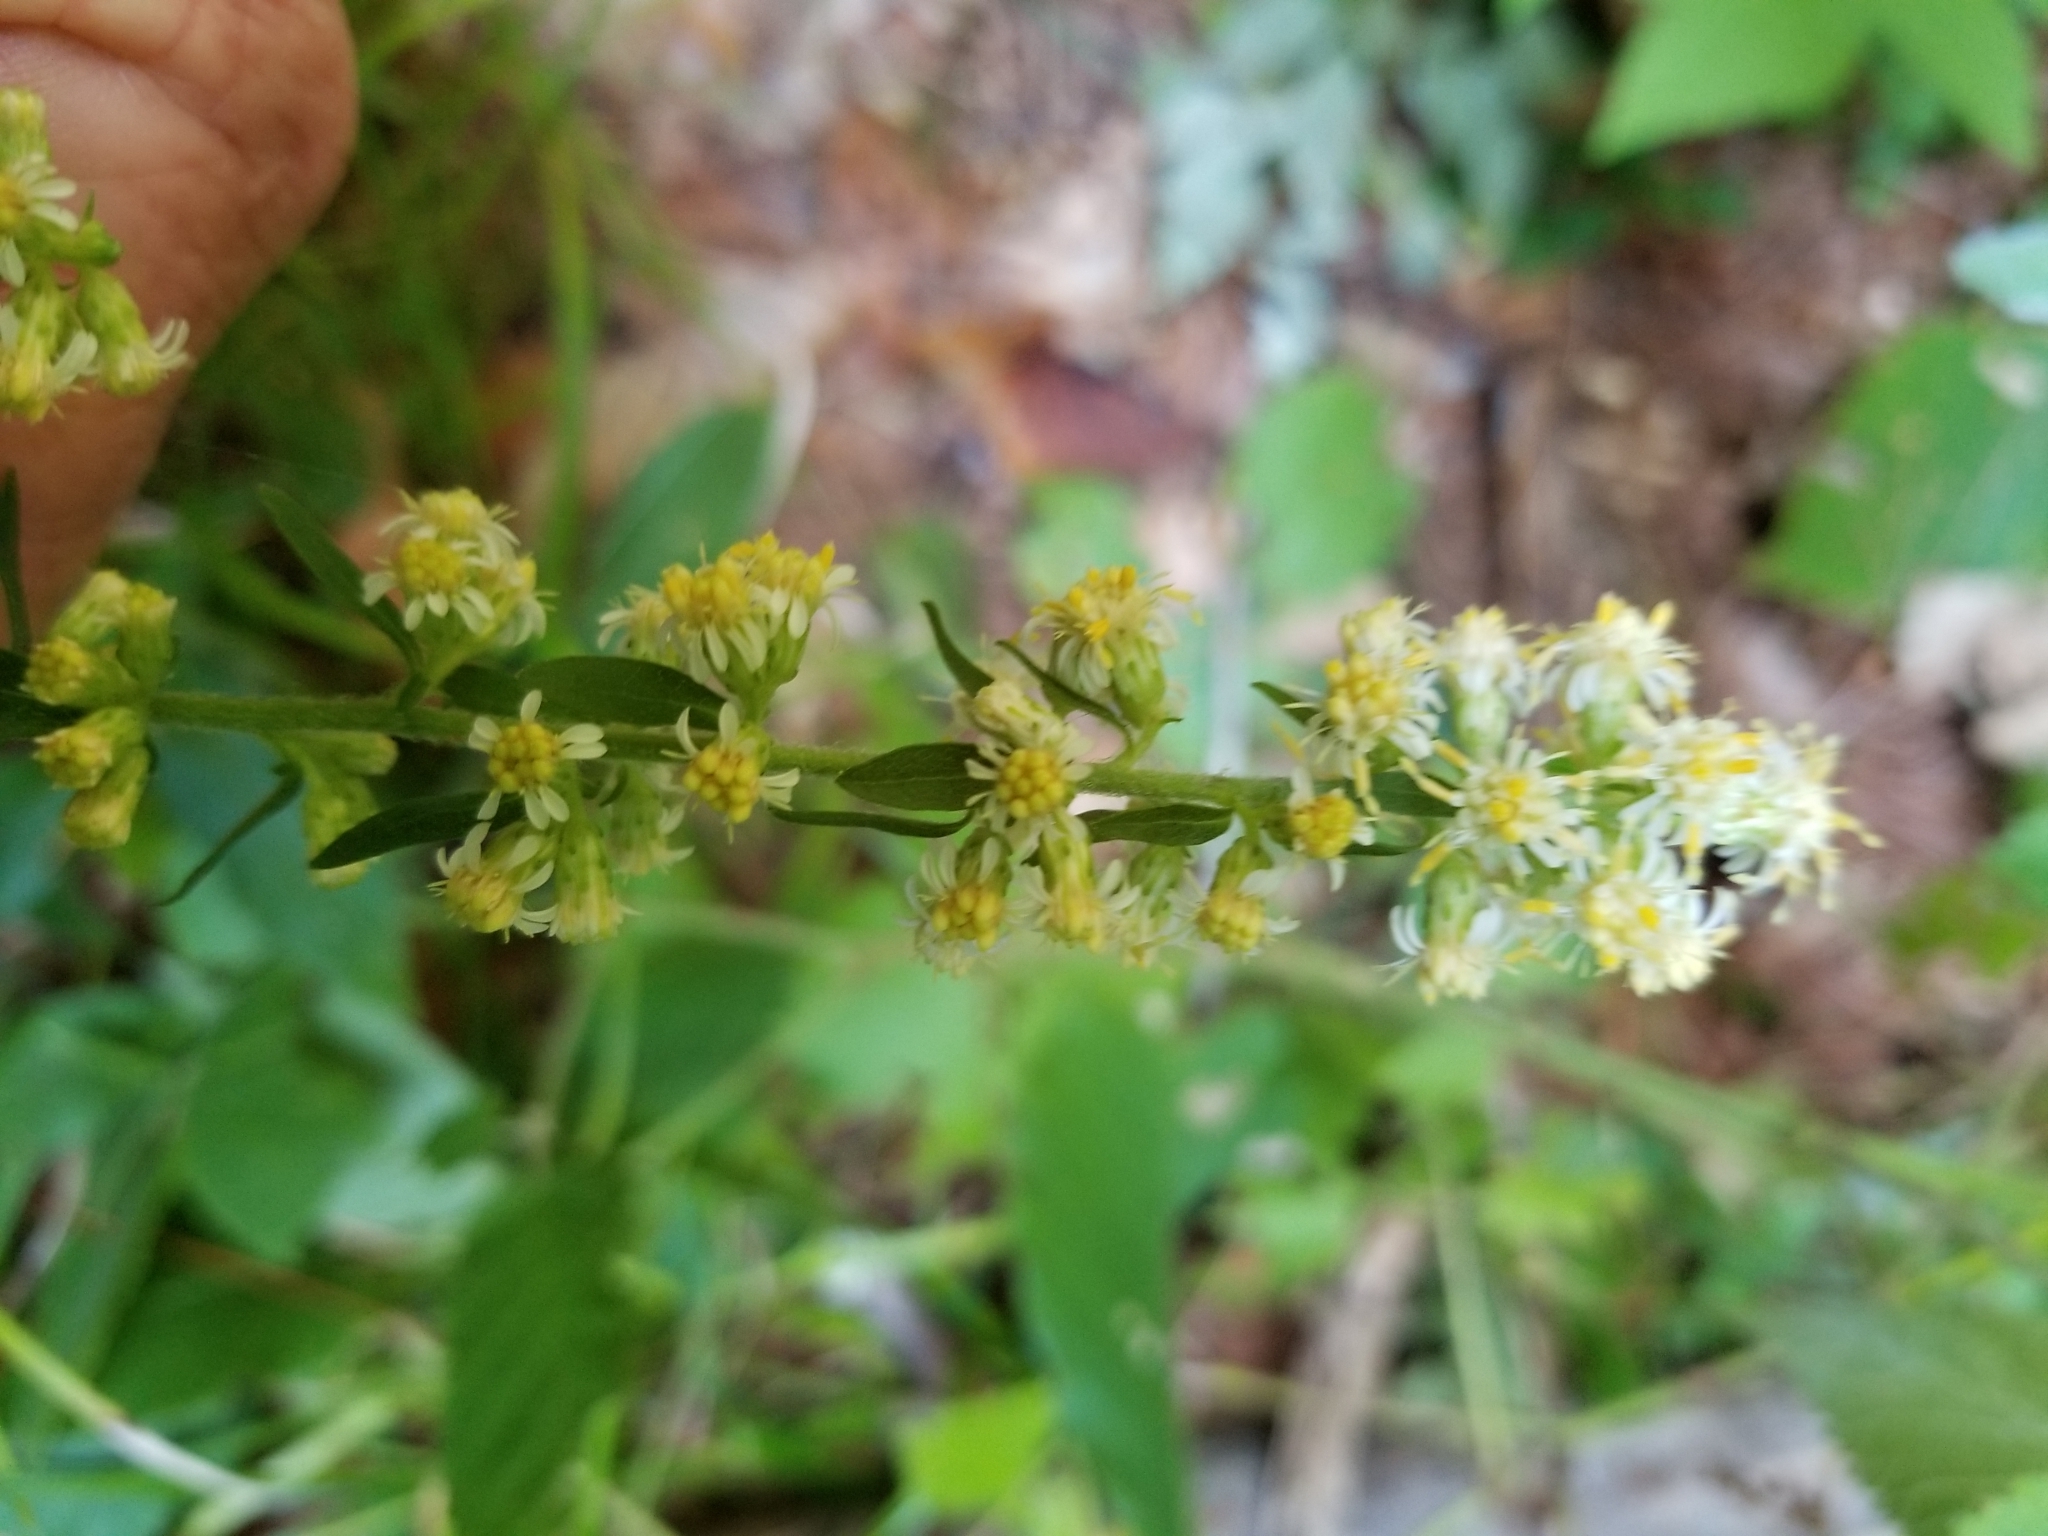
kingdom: Plantae
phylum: Tracheophyta
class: Magnoliopsida
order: Asterales
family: Asteraceae
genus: Solidago
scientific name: Solidago bicolor
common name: Silverrod
